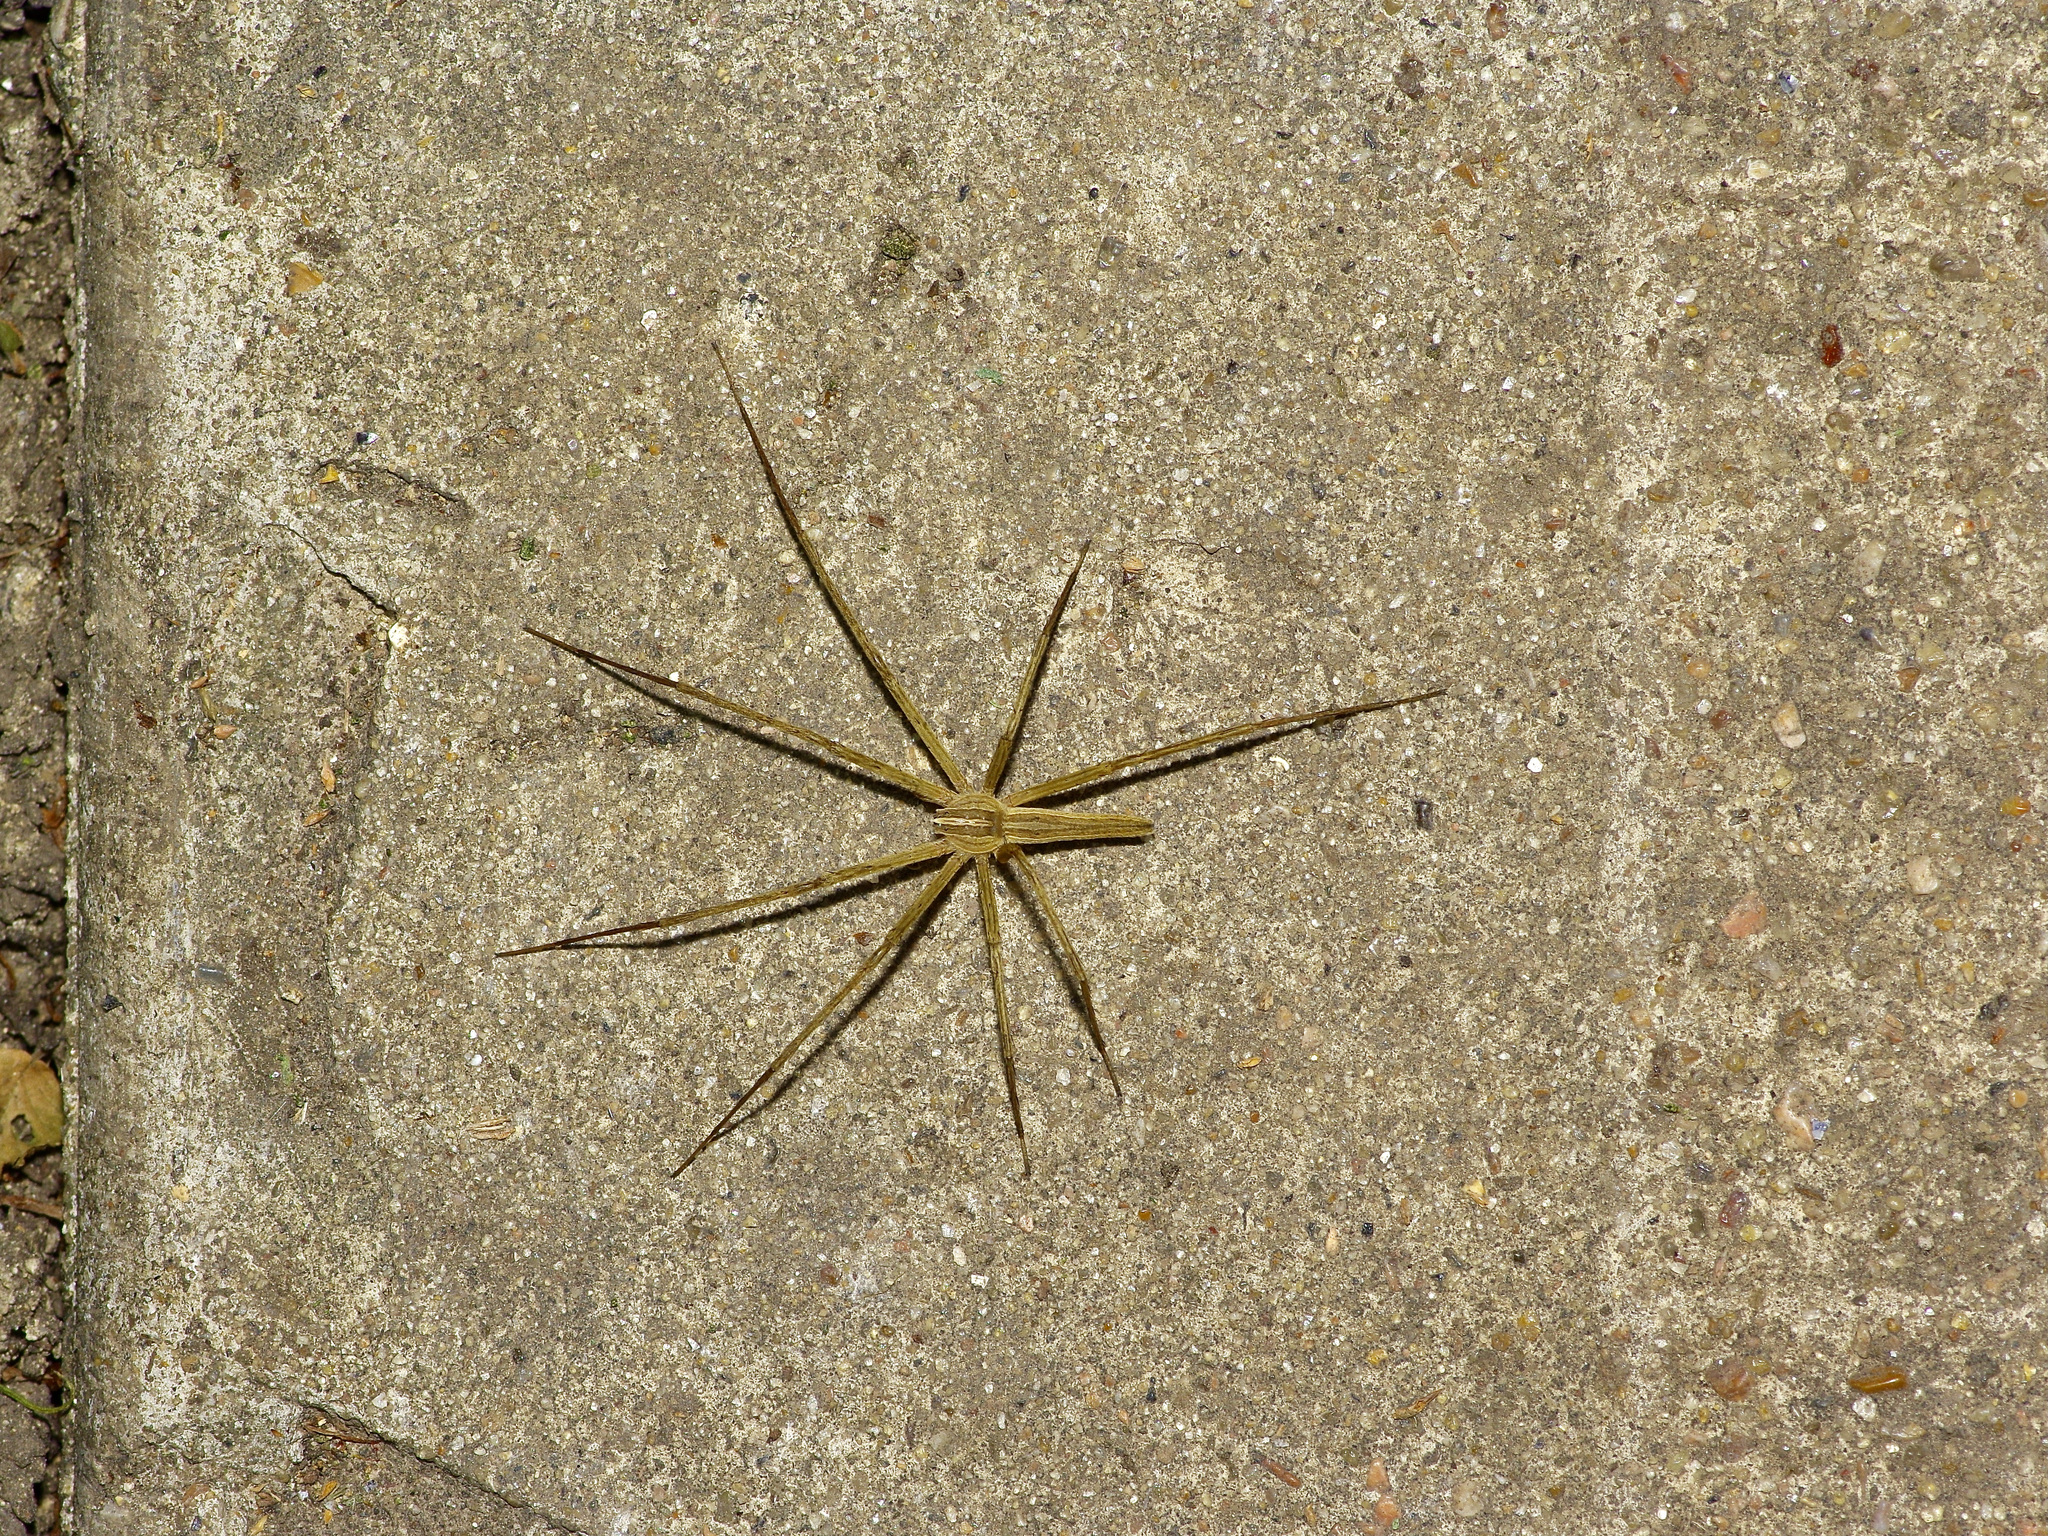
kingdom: Animalia
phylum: Arthropoda
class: Arachnida
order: Araneae
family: Pisauridae
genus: Pisaurina
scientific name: Pisaurina dubia
